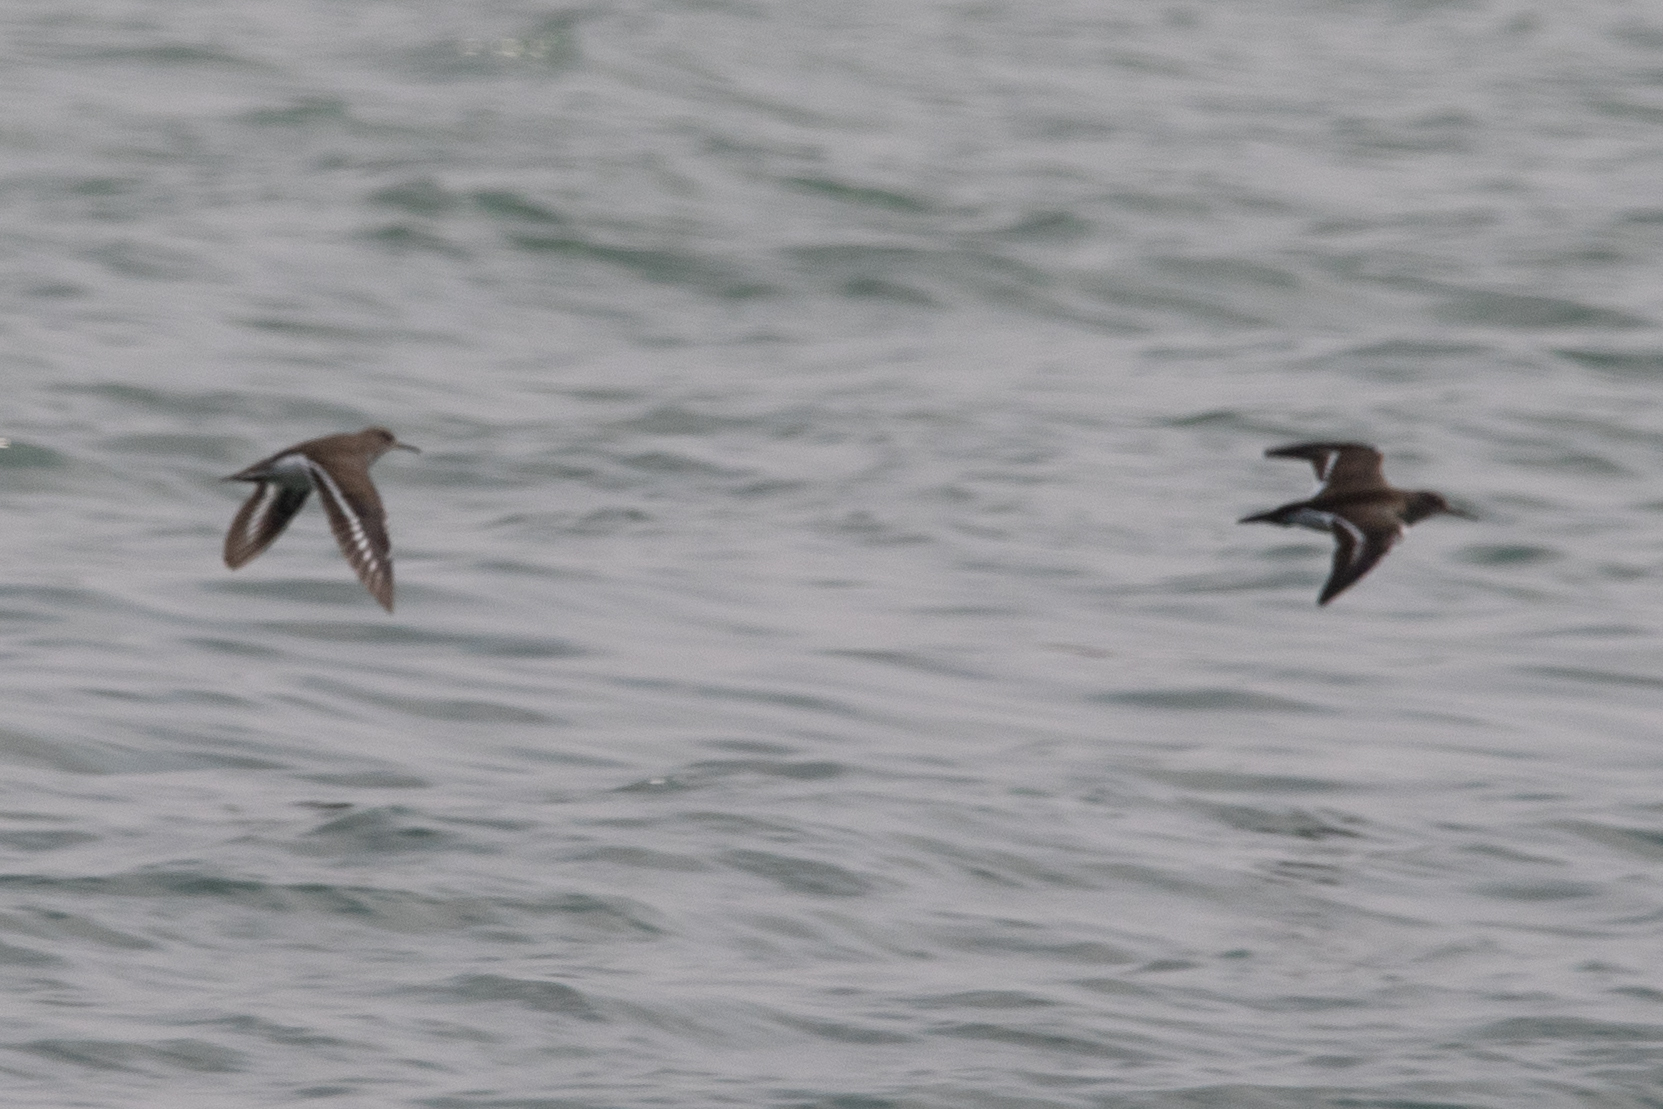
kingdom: Animalia
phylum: Chordata
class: Aves
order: Charadriiformes
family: Scolopacidae
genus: Actitis
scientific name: Actitis hypoleucos
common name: Common sandpiper
